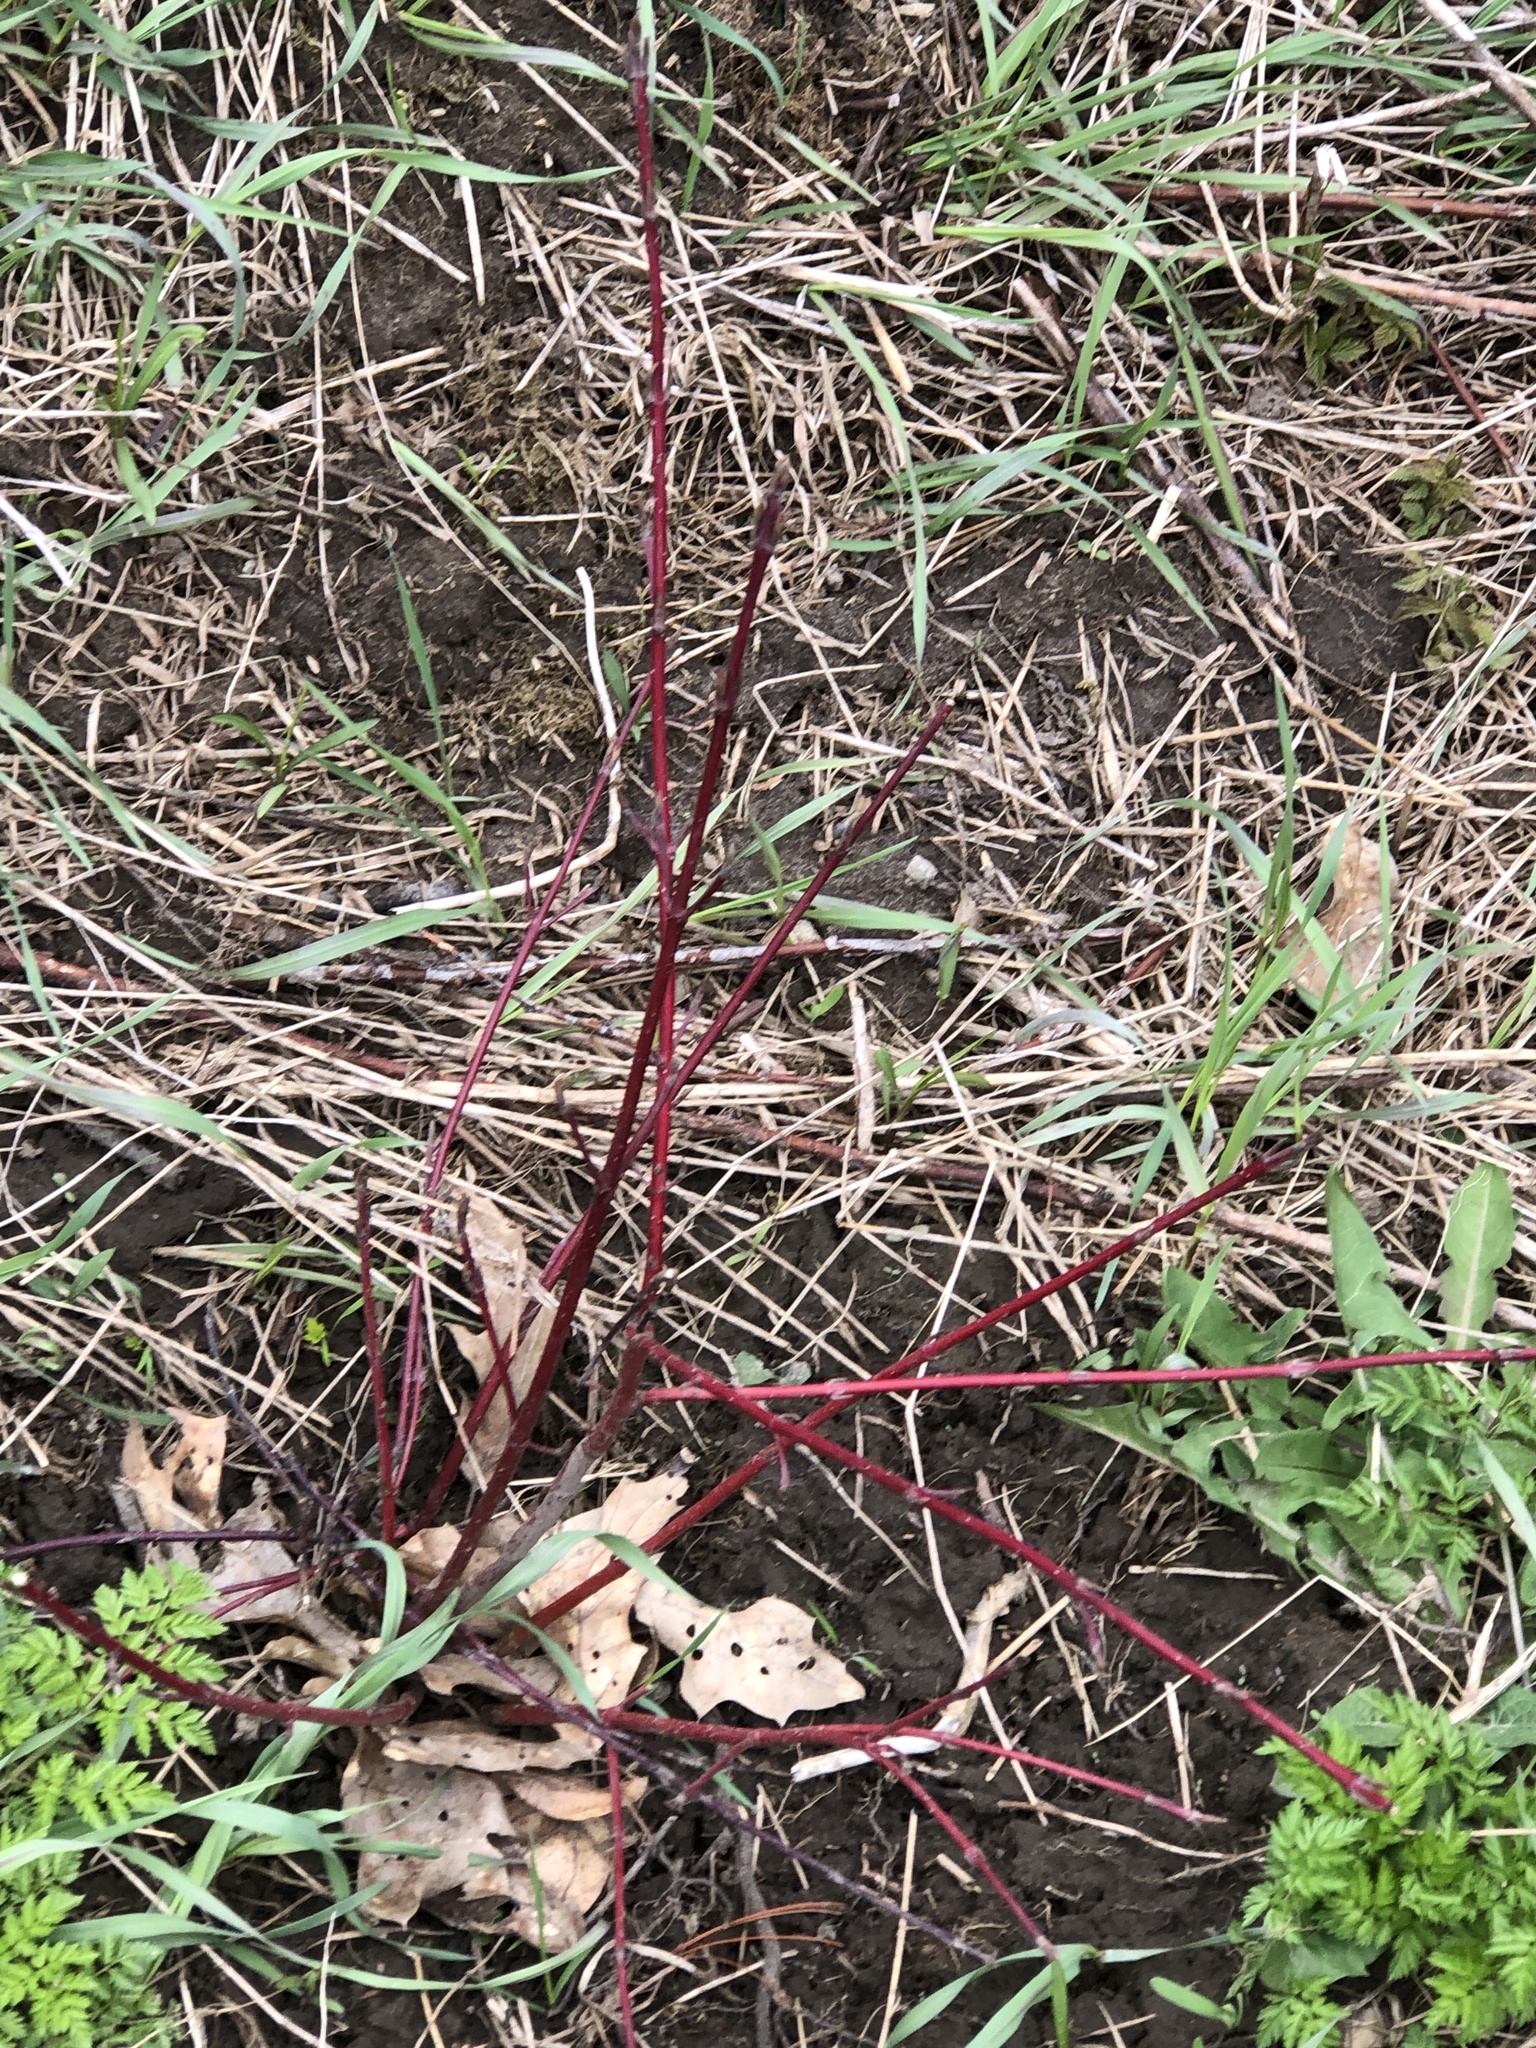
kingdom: Plantae
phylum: Tracheophyta
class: Magnoliopsida
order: Cornales
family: Cornaceae
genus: Cornus
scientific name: Cornus sericea
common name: Red-osier dogwood
